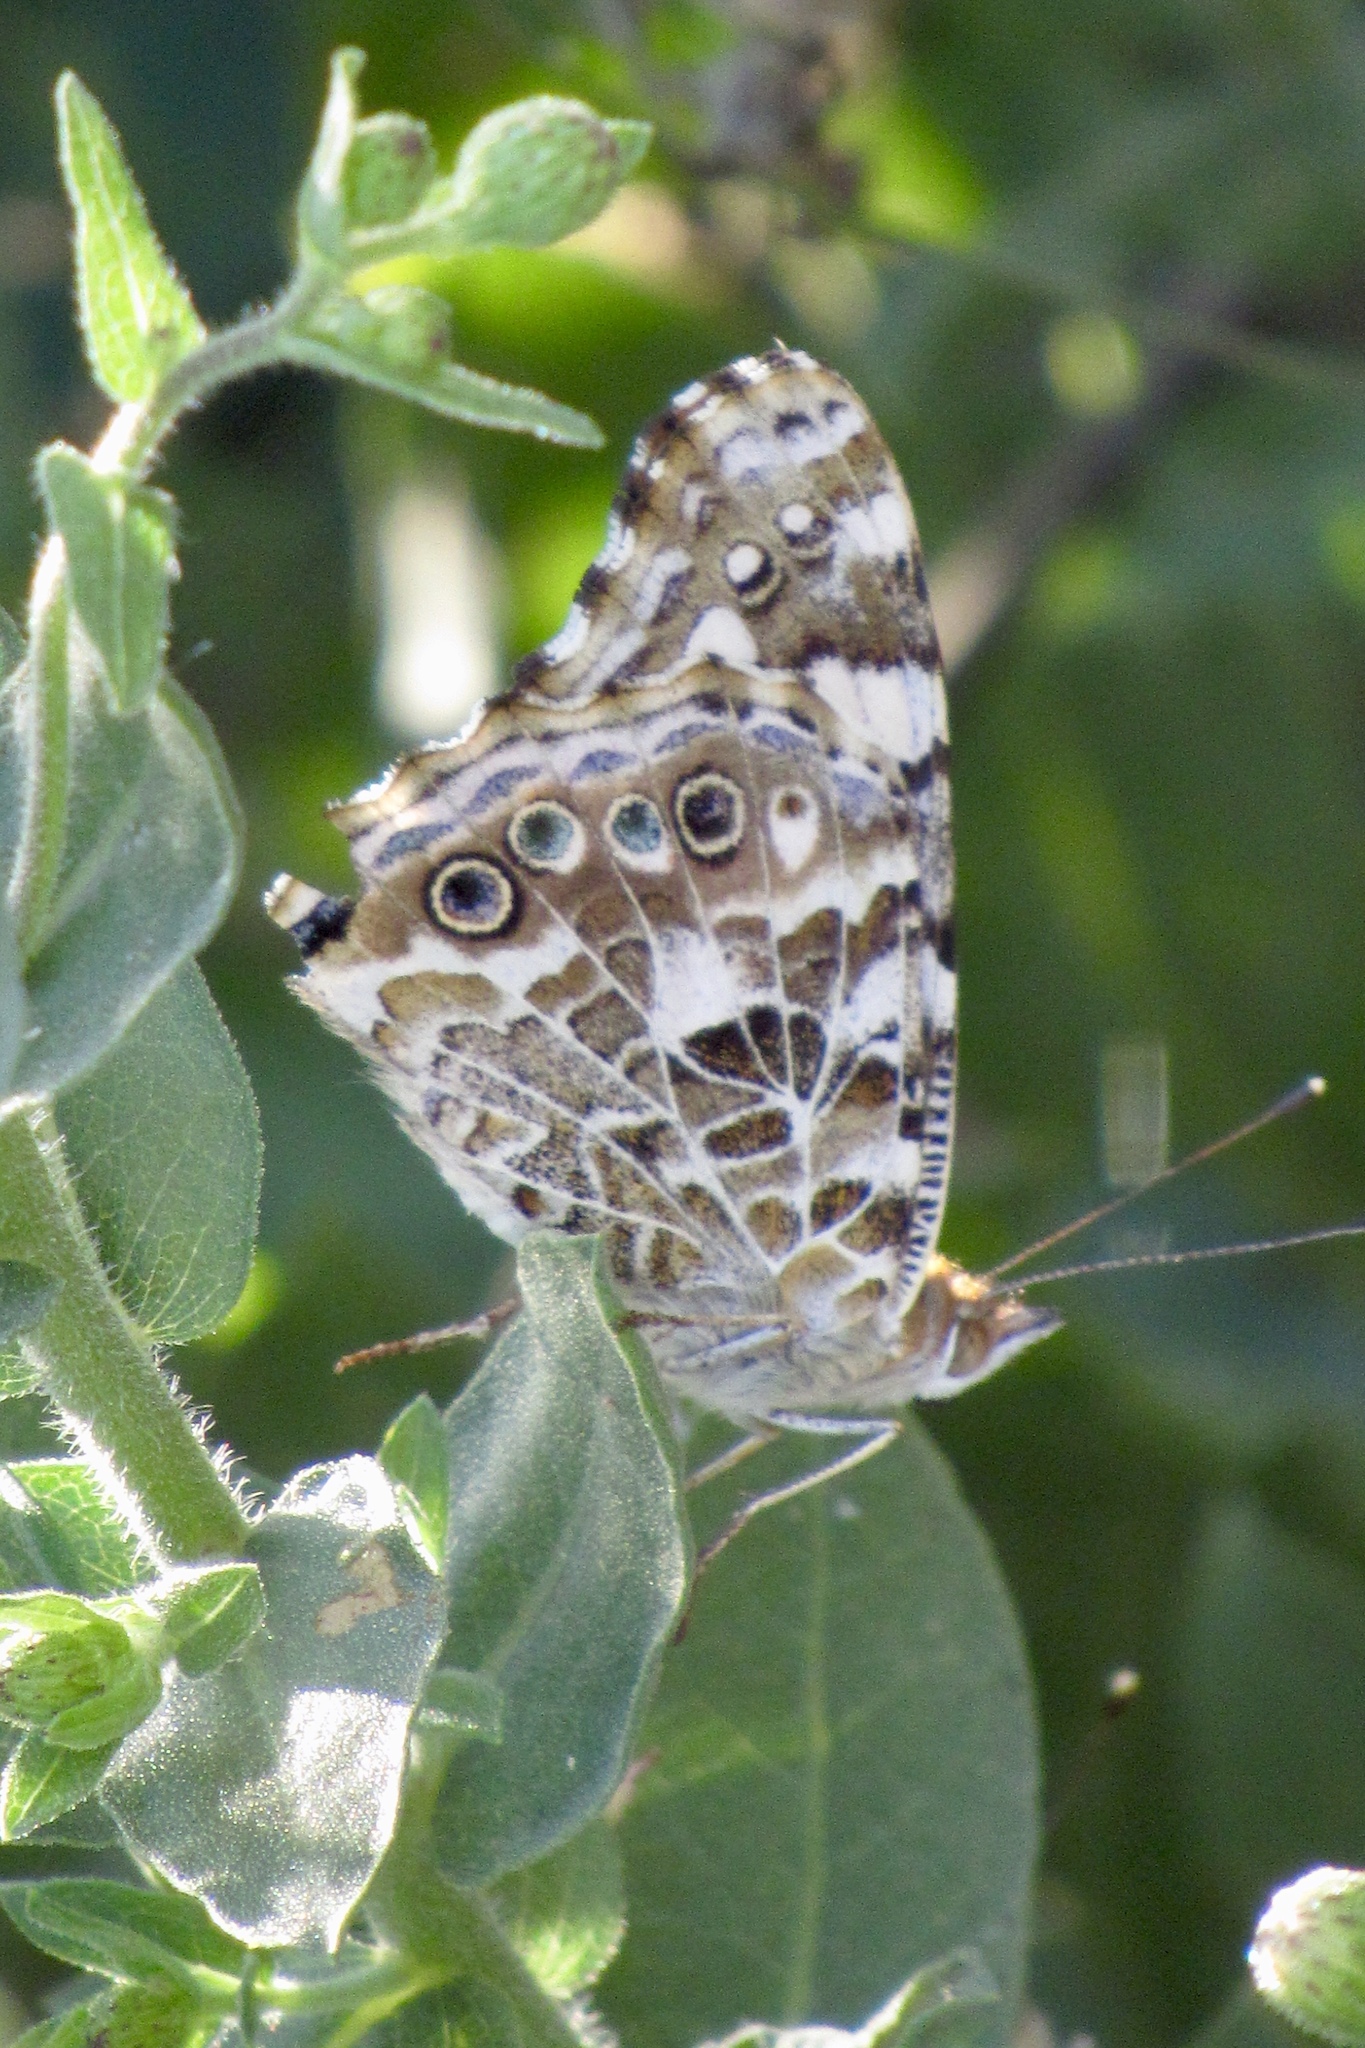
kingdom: Animalia
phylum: Arthropoda
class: Insecta
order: Lepidoptera
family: Nymphalidae
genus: Vanessa
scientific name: Vanessa cardui
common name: Painted lady
